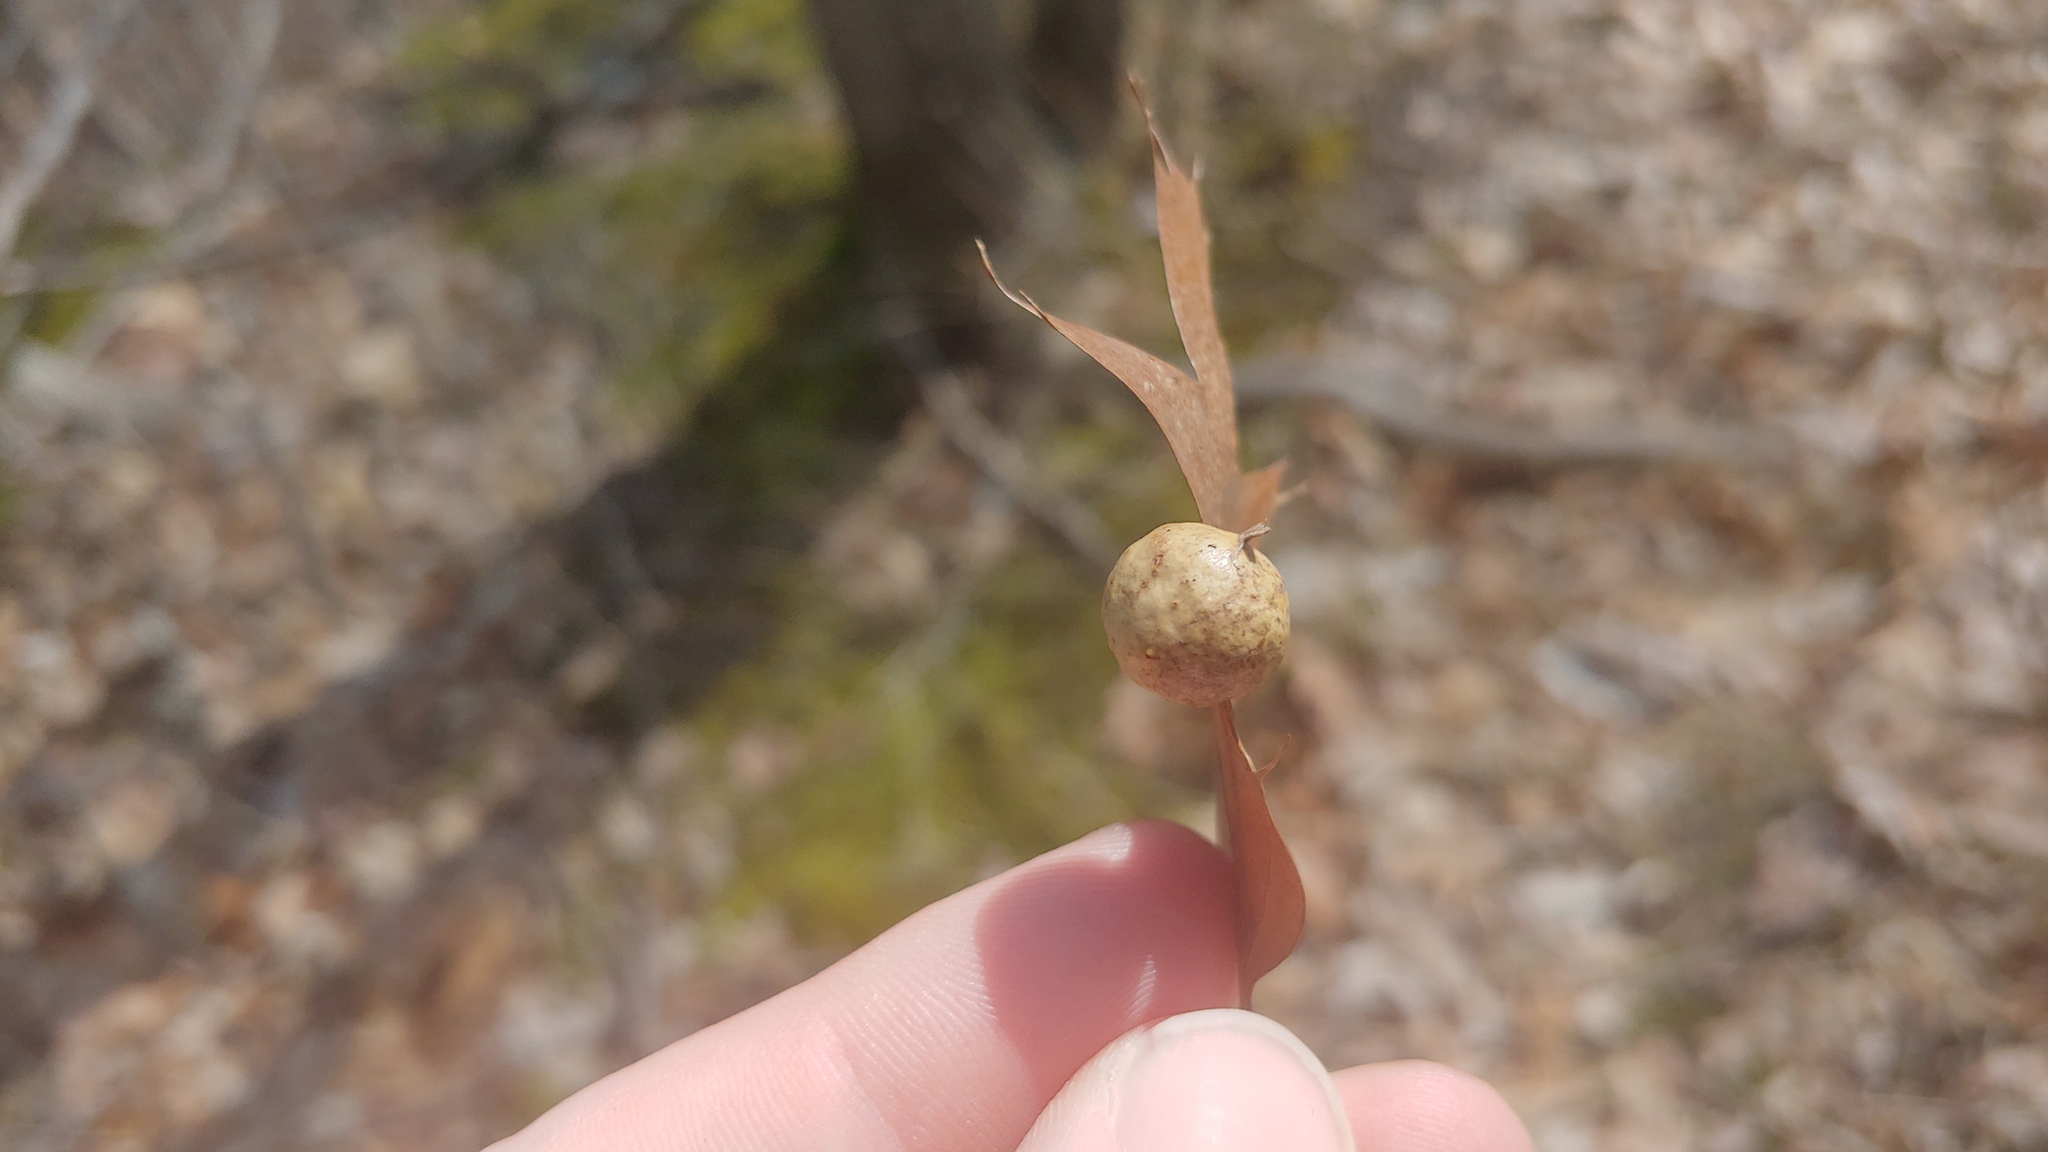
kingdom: Animalia
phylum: Arthropoda
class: Insecta
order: Hymenoptera
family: Cynipidae
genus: Amphibolips
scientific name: Amphibolips
